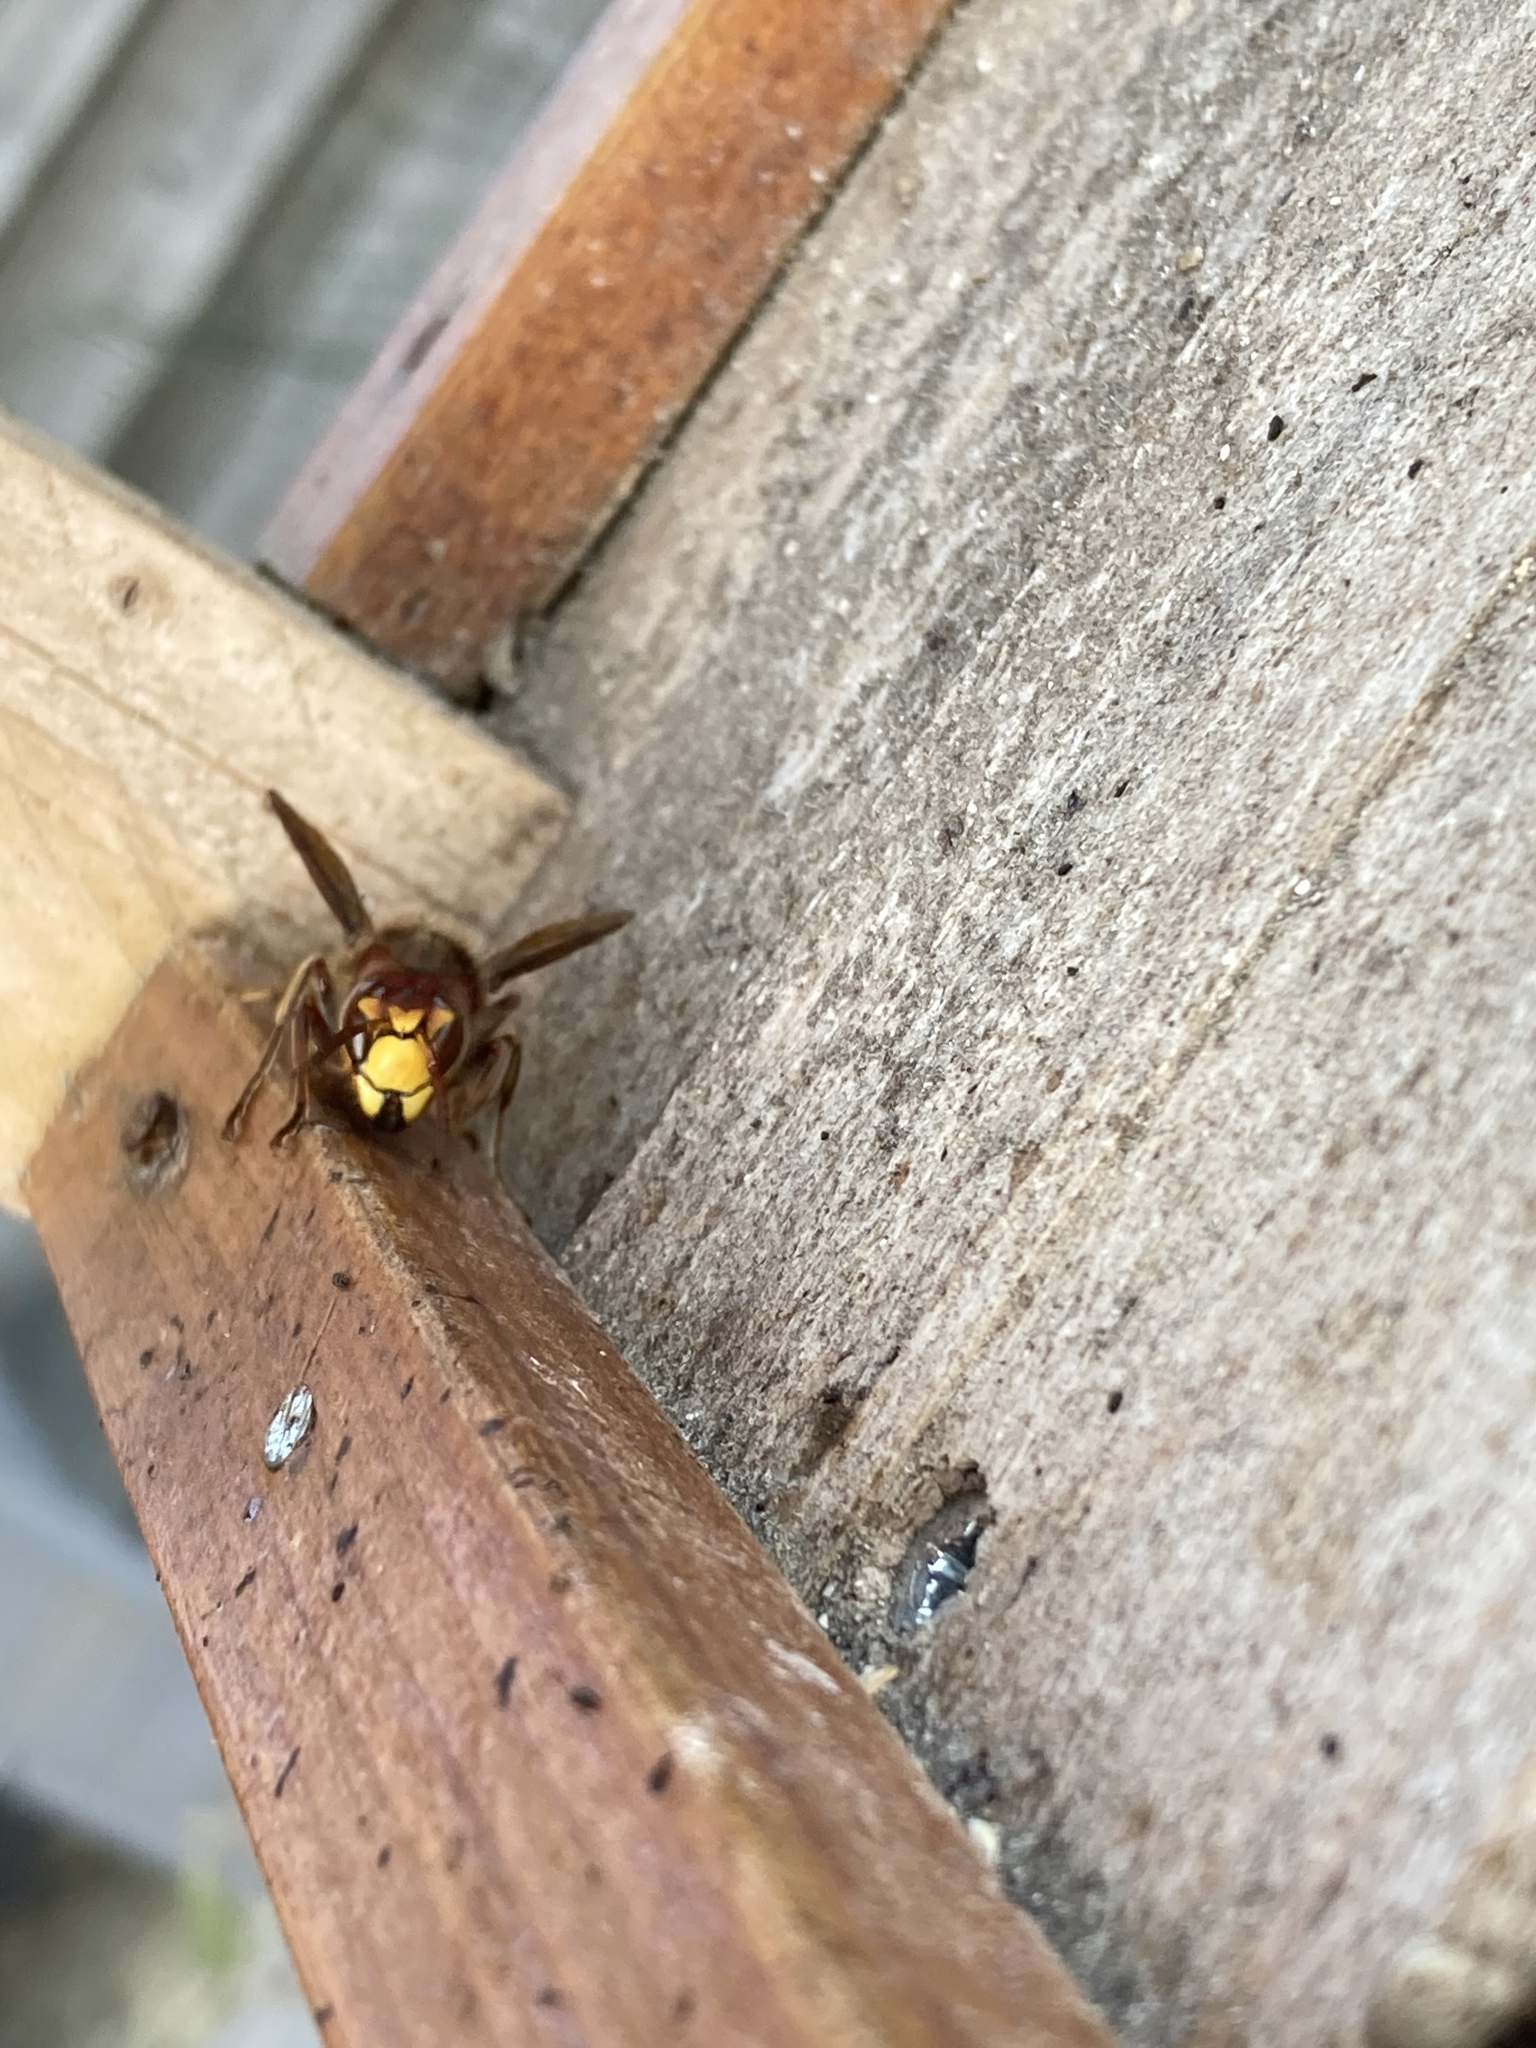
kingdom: Animalia
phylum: Arthropoda
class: Insecta
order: Hymenoptera
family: Vespidae
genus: Vespa
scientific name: Vespa crabro
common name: Hornet
